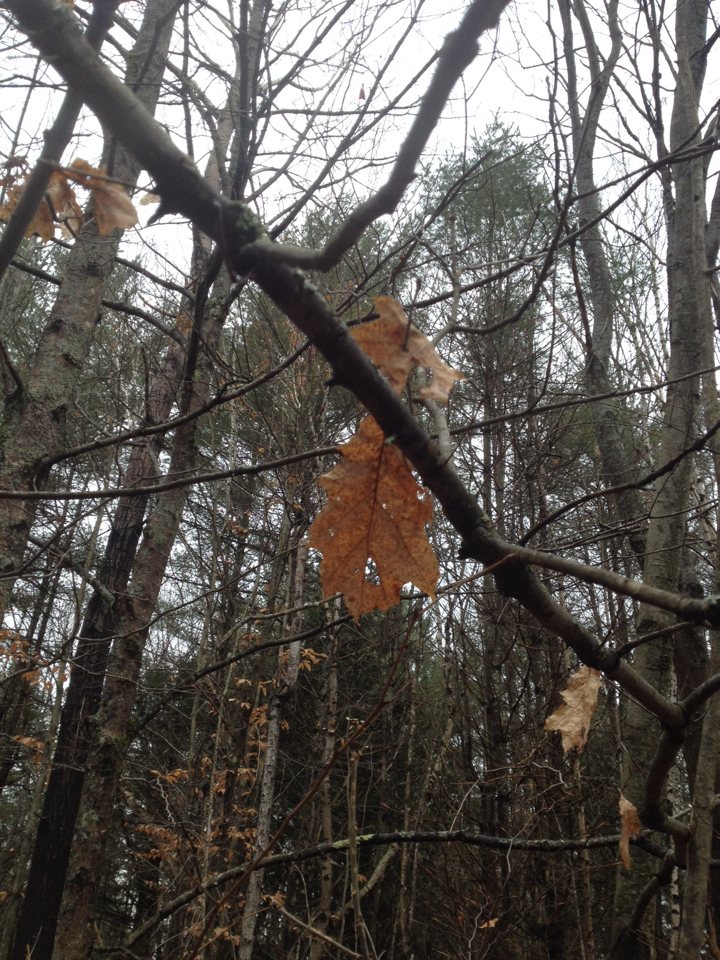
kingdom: Plantae
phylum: Tracheophyta
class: Magnoliopsida
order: Fagales
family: Fagaceae
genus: Quercus
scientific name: Quercus rubra
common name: Red oak
